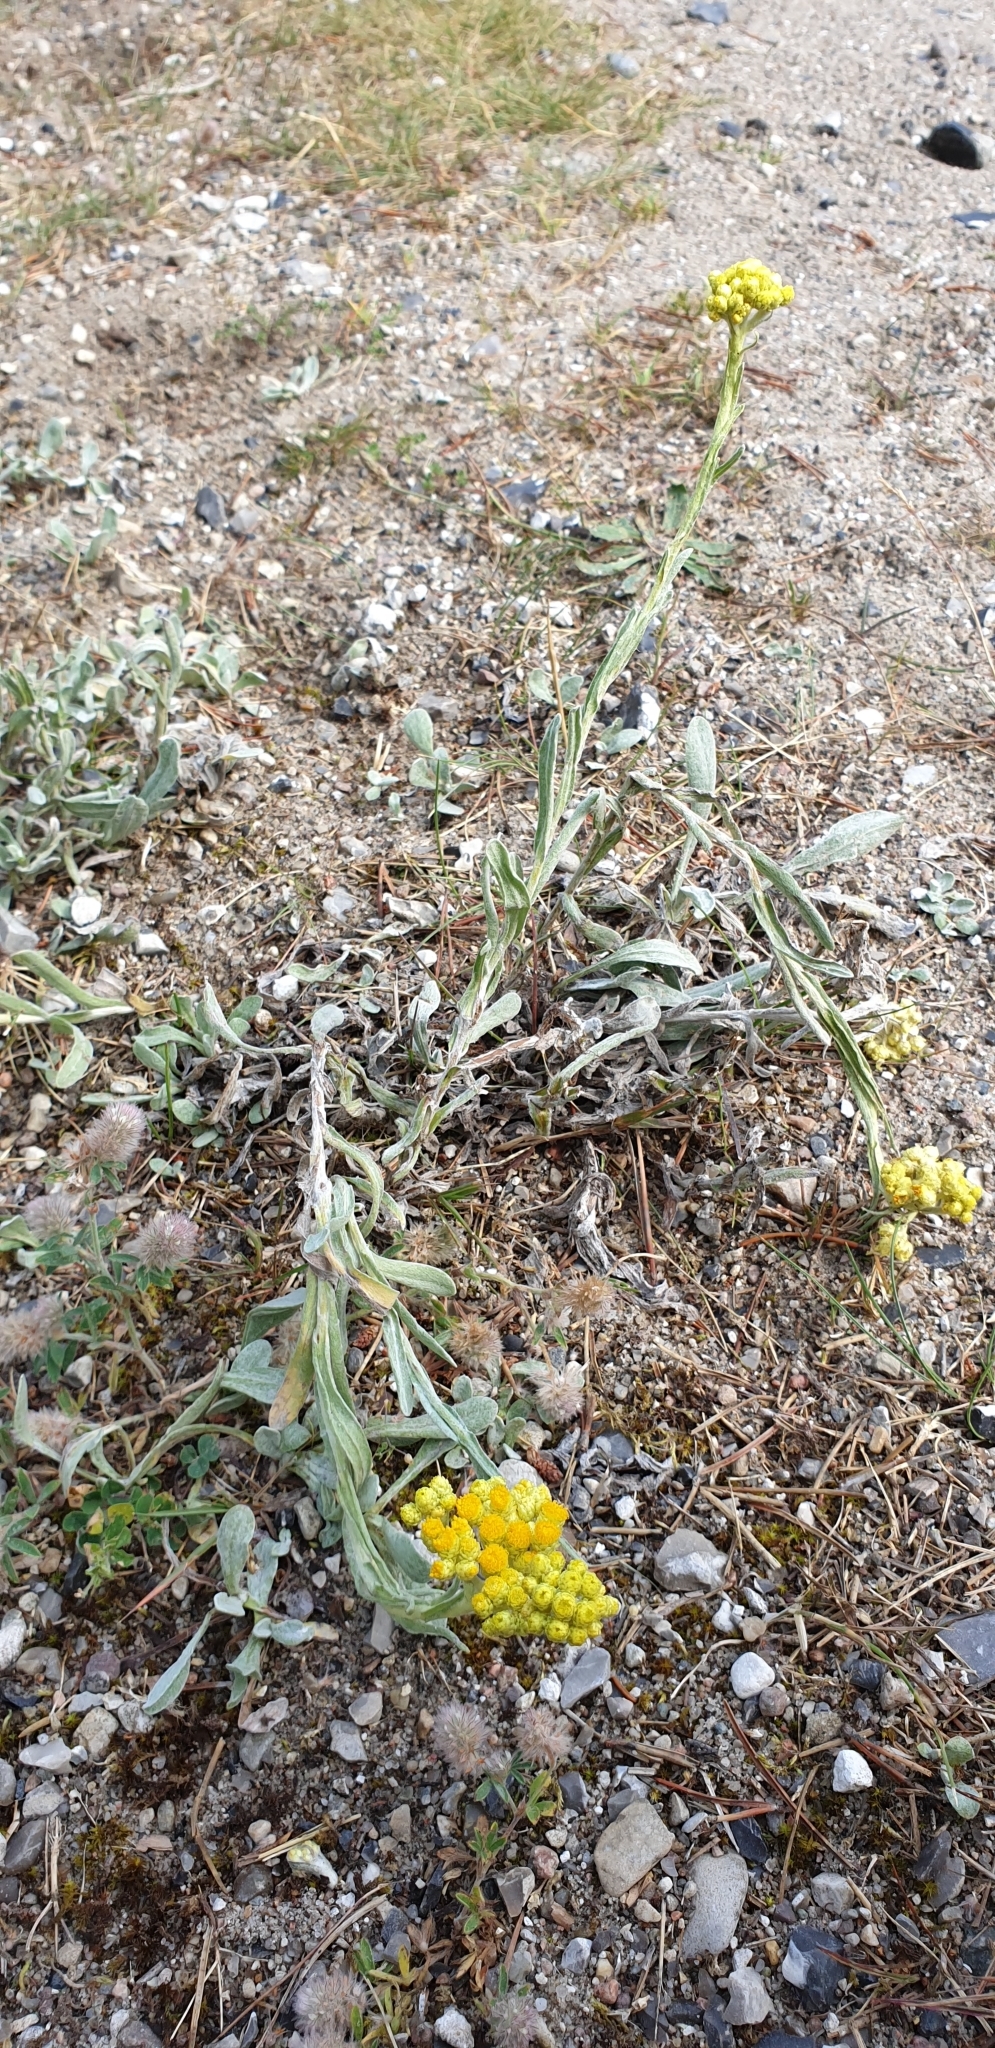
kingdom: Plantae
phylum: Tracheophyta
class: Magnoliopsida
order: Asterales
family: Asteraceae
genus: Helichrysum
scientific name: Helichrysum arenarium
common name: Strawflower
